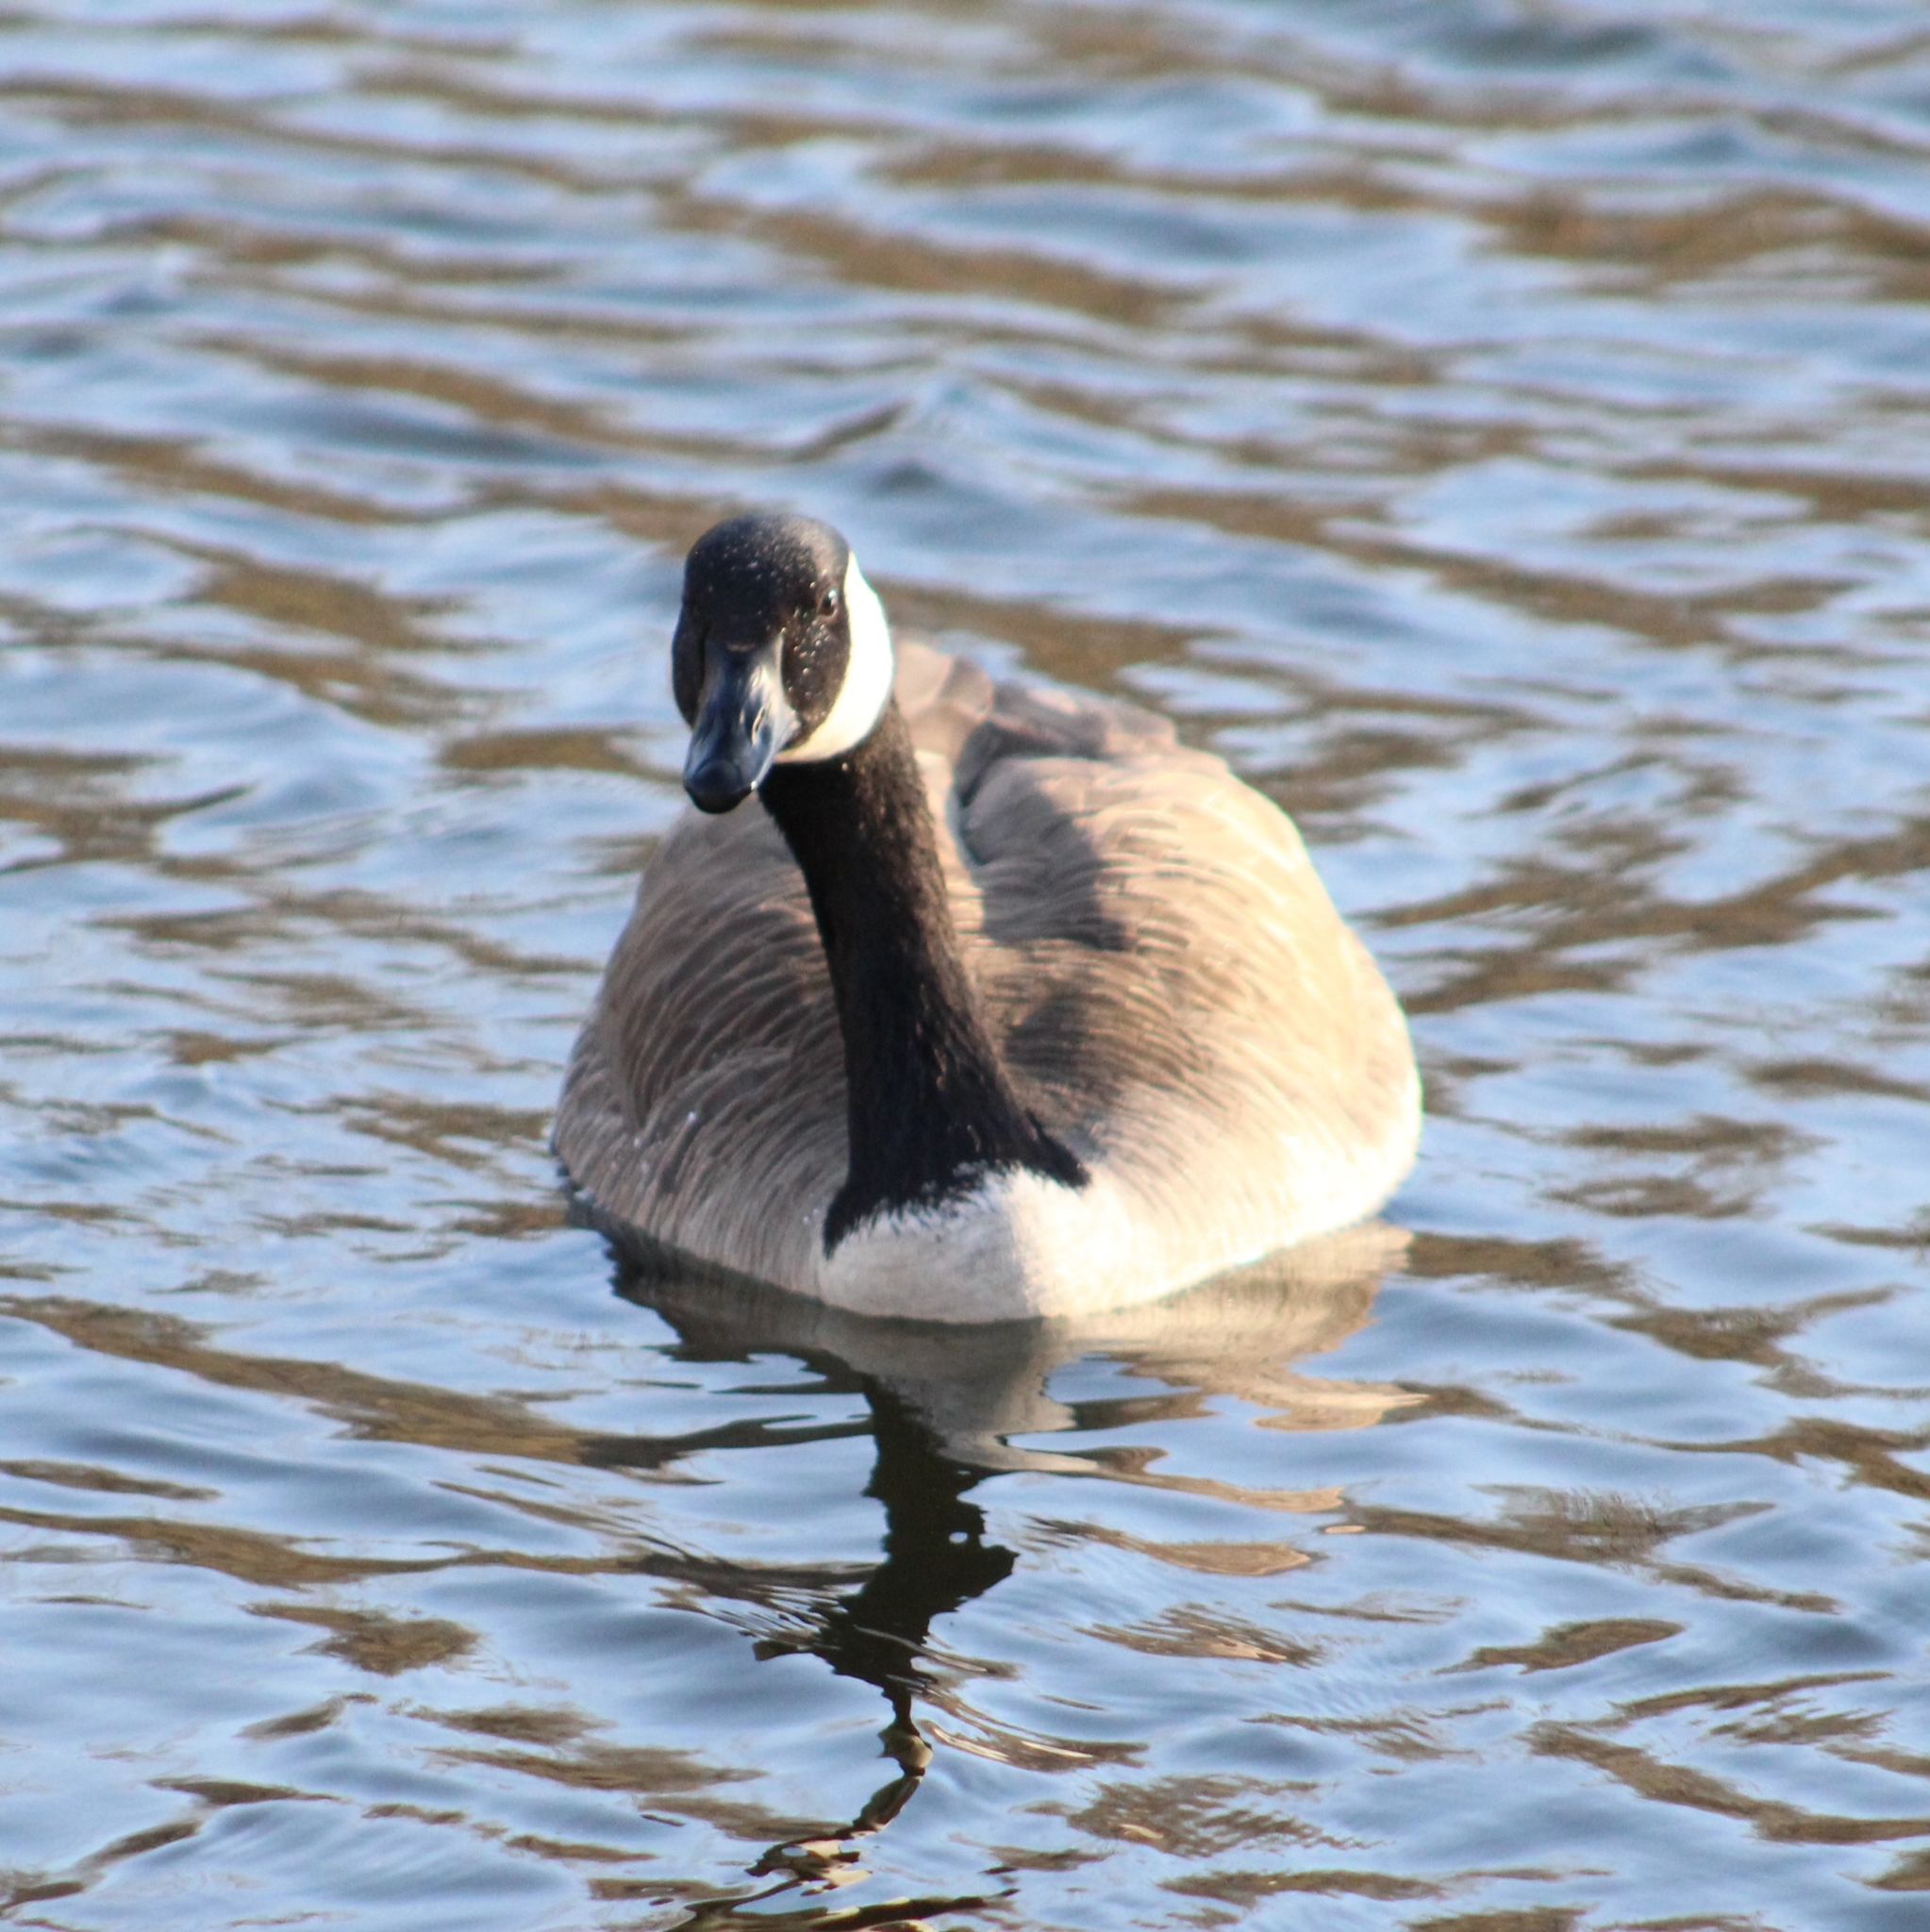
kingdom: Animalia
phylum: Chordata
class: Aves
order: Anseriformes
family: Anatidae
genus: Branta
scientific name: Branta canadensis
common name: Canada goose
